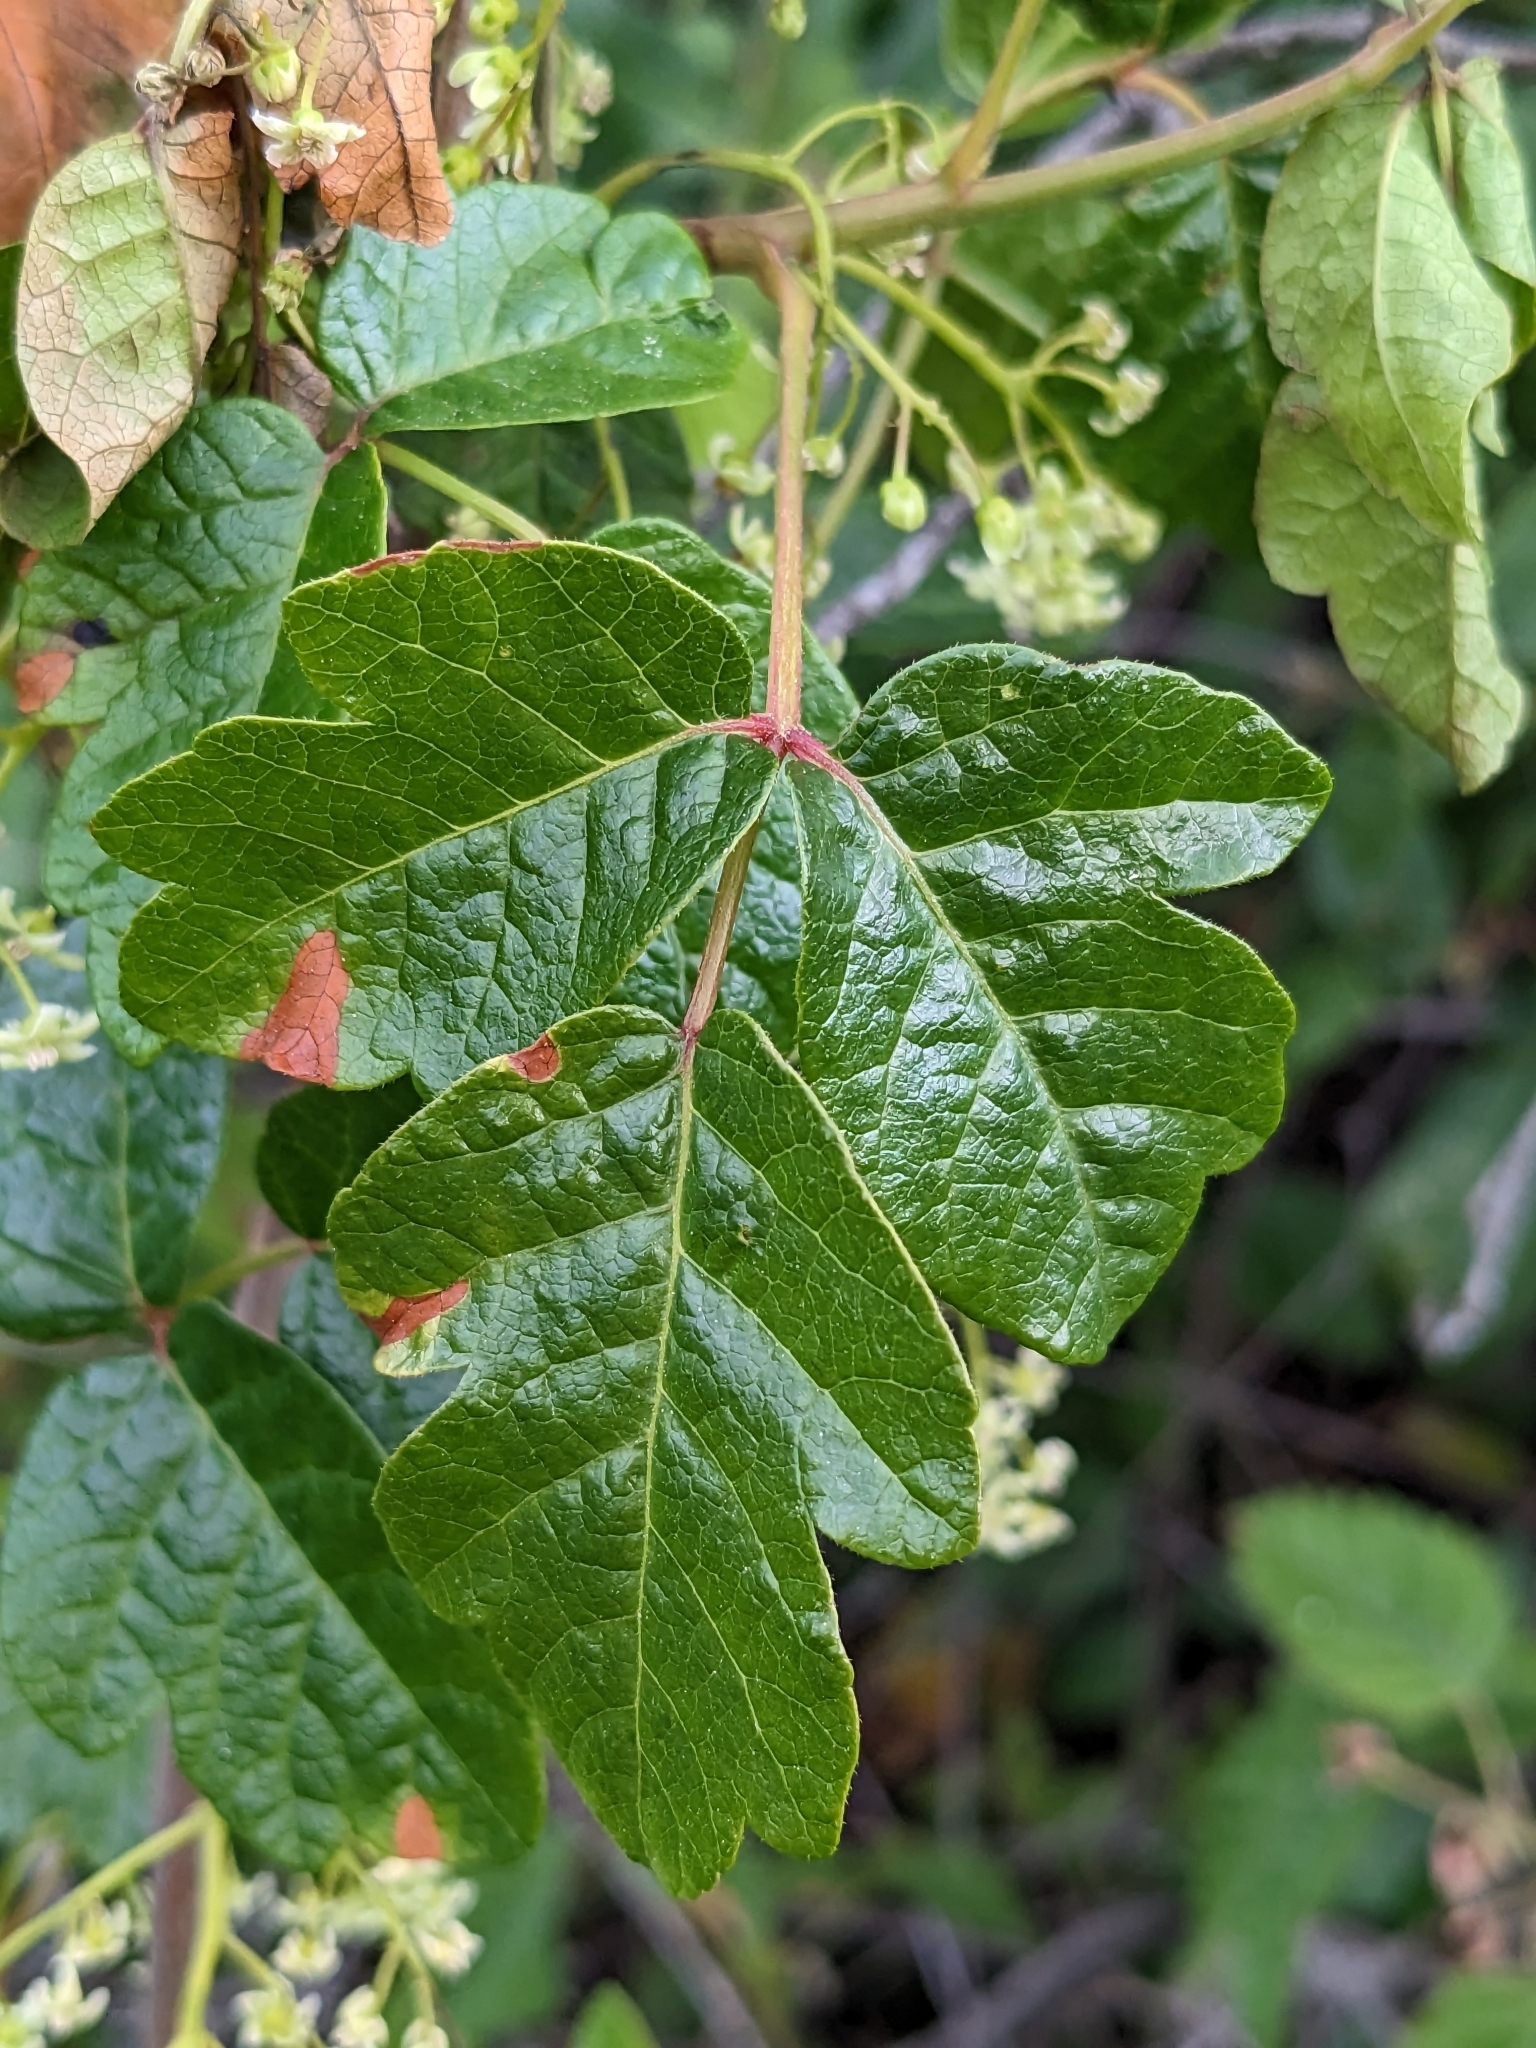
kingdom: Plantae
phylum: Tracheophyta
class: Magnoliopsida
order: Sapindales
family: Anacardiaceae
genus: Toxicodendron
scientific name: Toxicodendron diversilobum
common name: Pacific poison-oak
